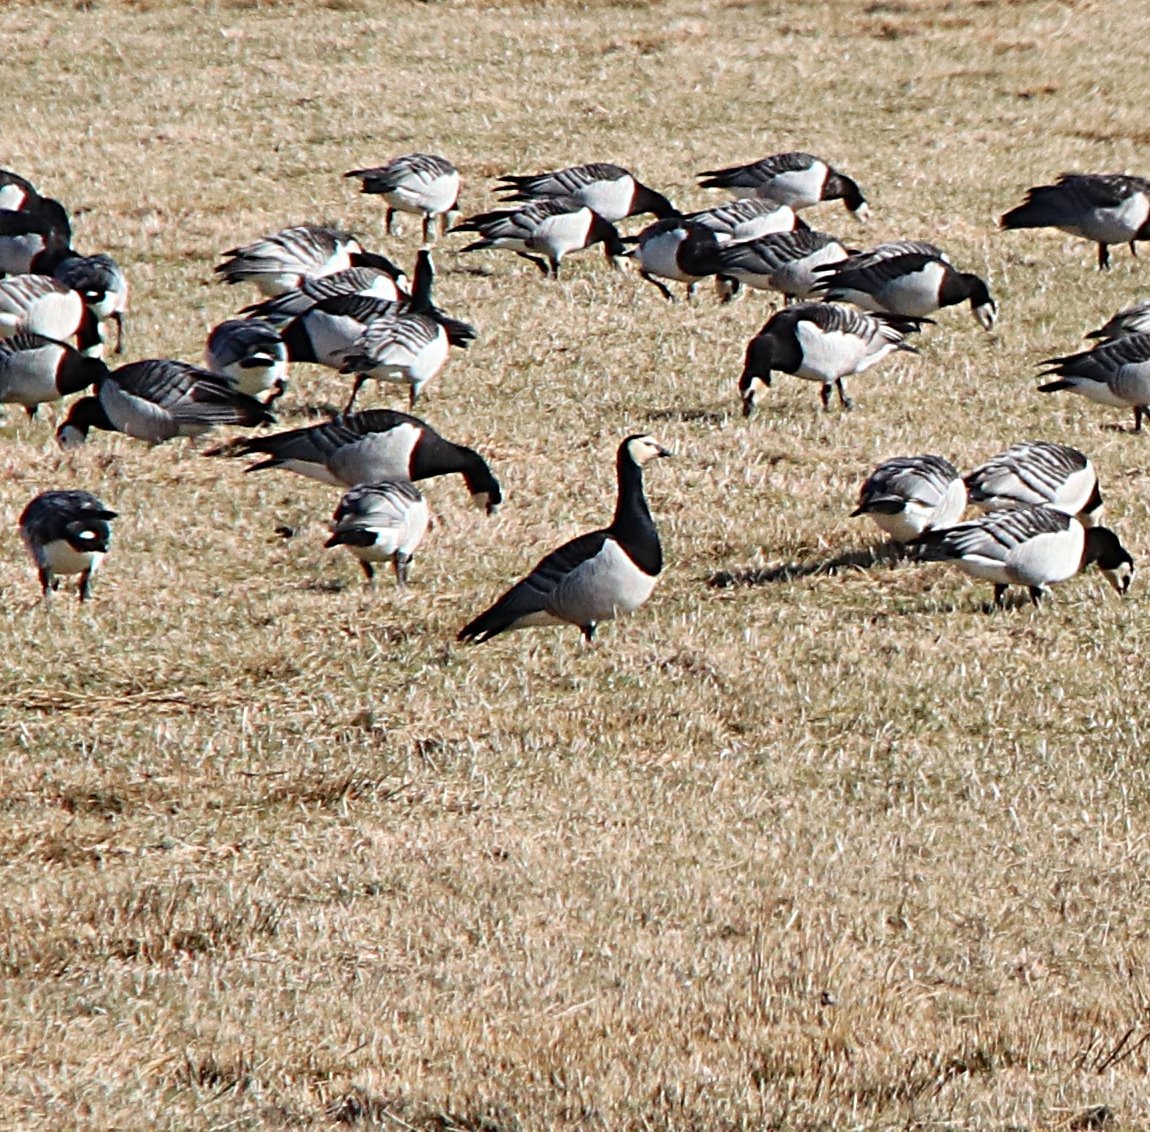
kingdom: Animalia
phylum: Chordata
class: Aves
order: Anseriformes
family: Anatidae
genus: Branta
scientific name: Branta leucopsis
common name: Barnacle goose
